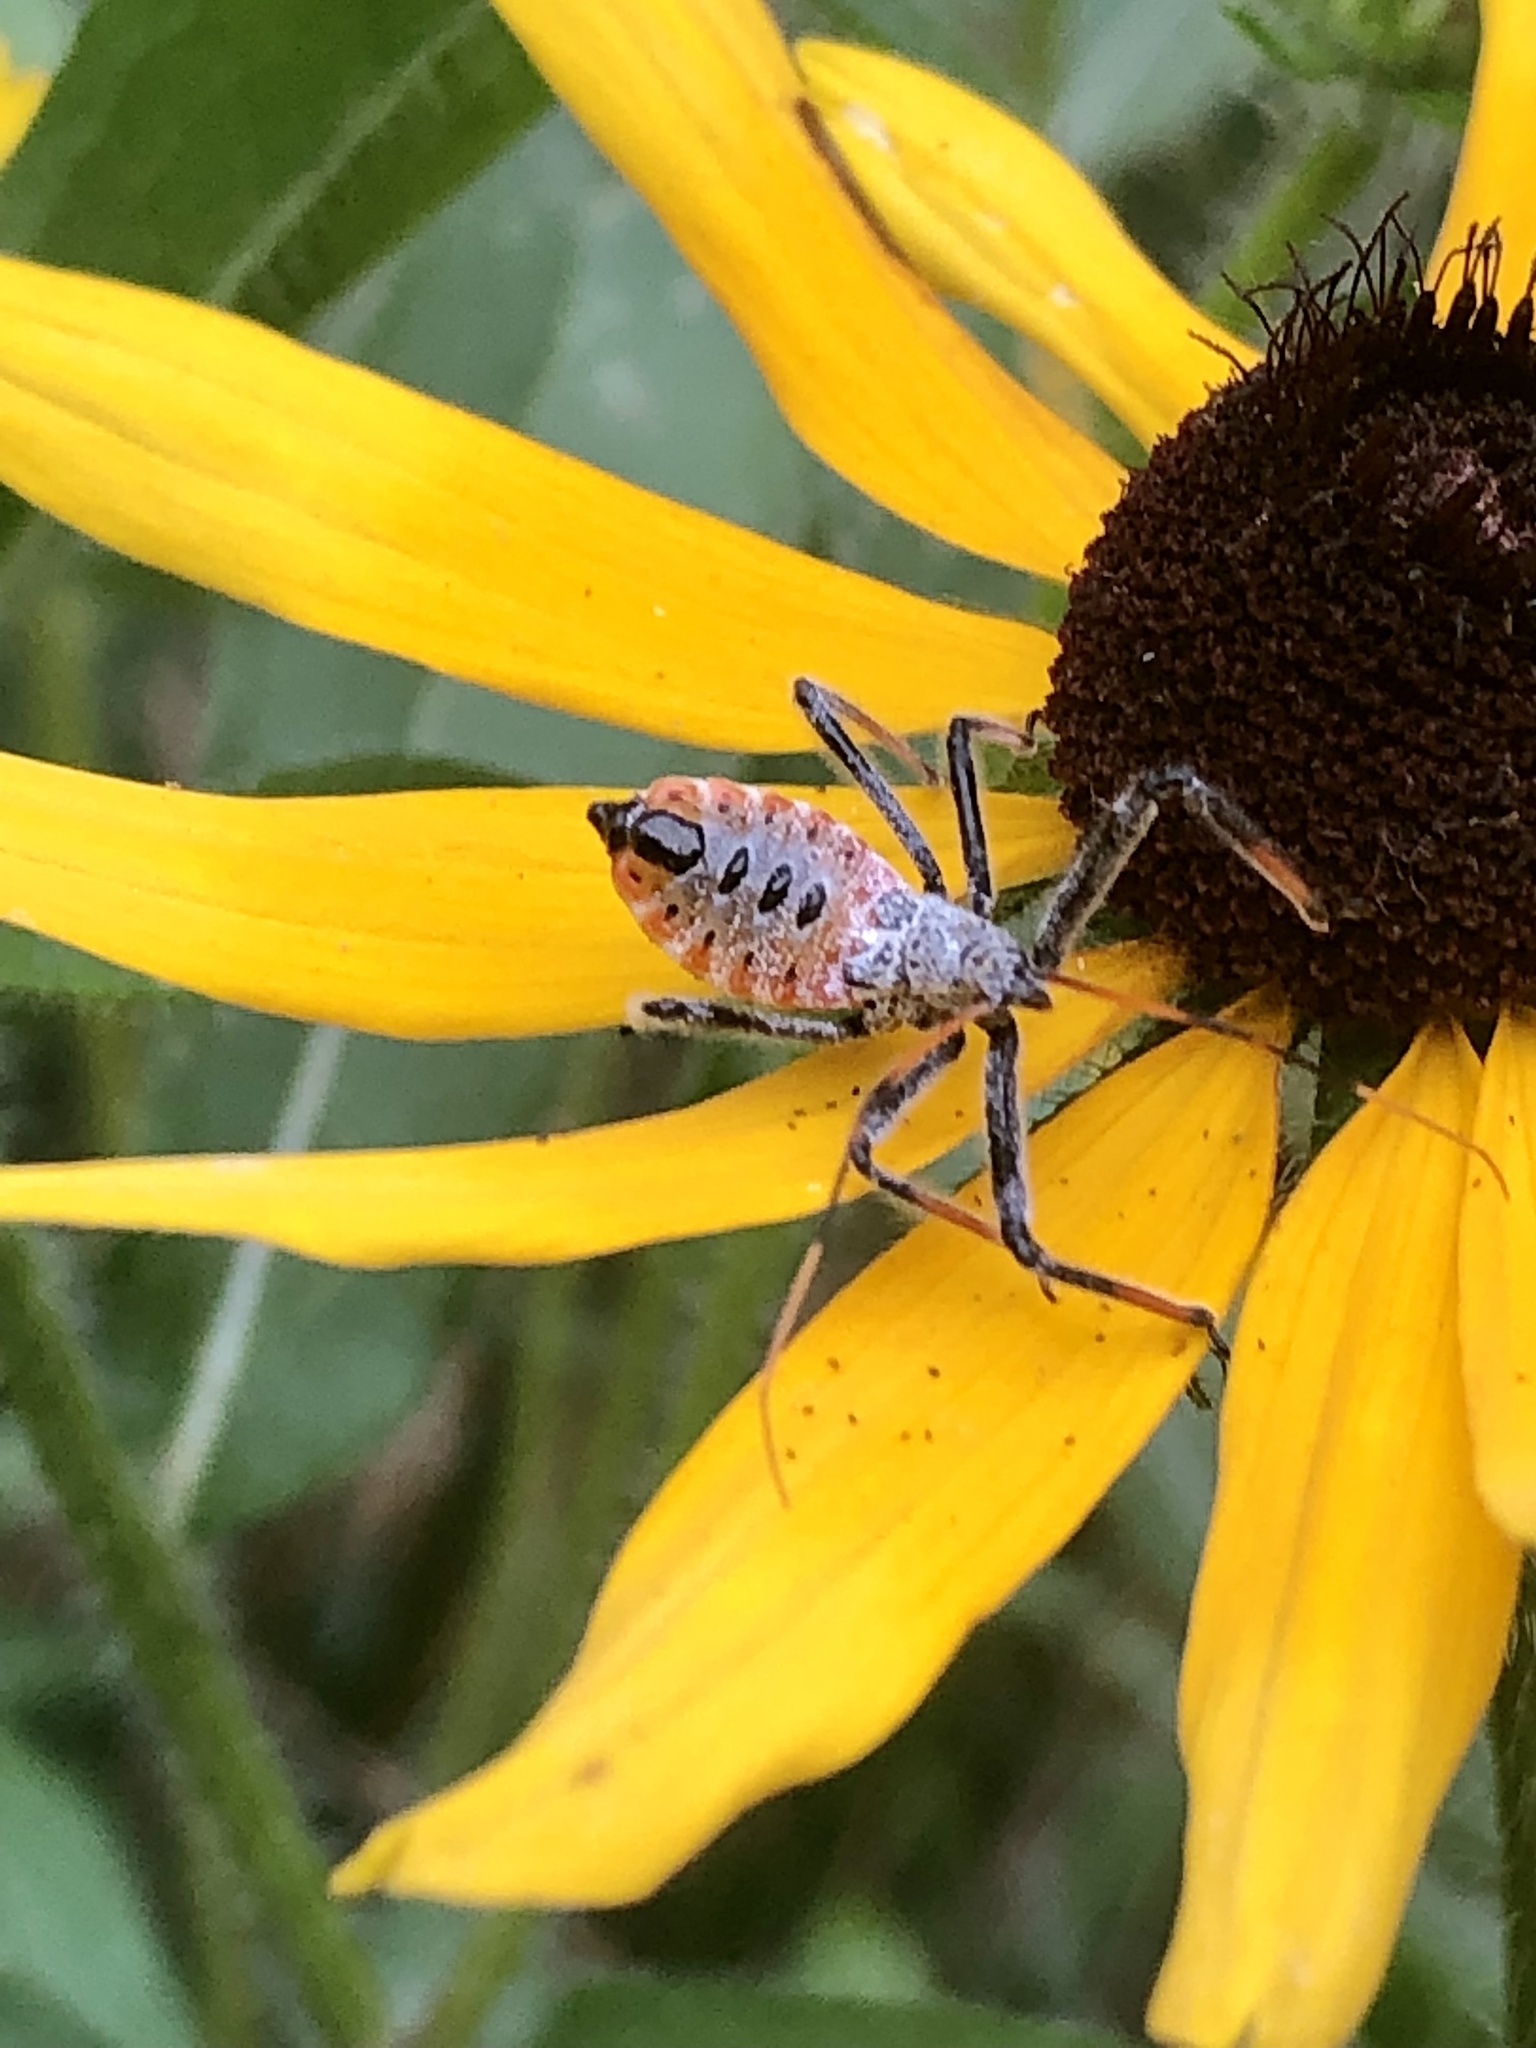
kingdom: Animalia
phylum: Arthropoda
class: Insecta
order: Hemiptera
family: Reduviidae
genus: Arilus
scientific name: Arilus cristatus
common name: North american wheel bug
